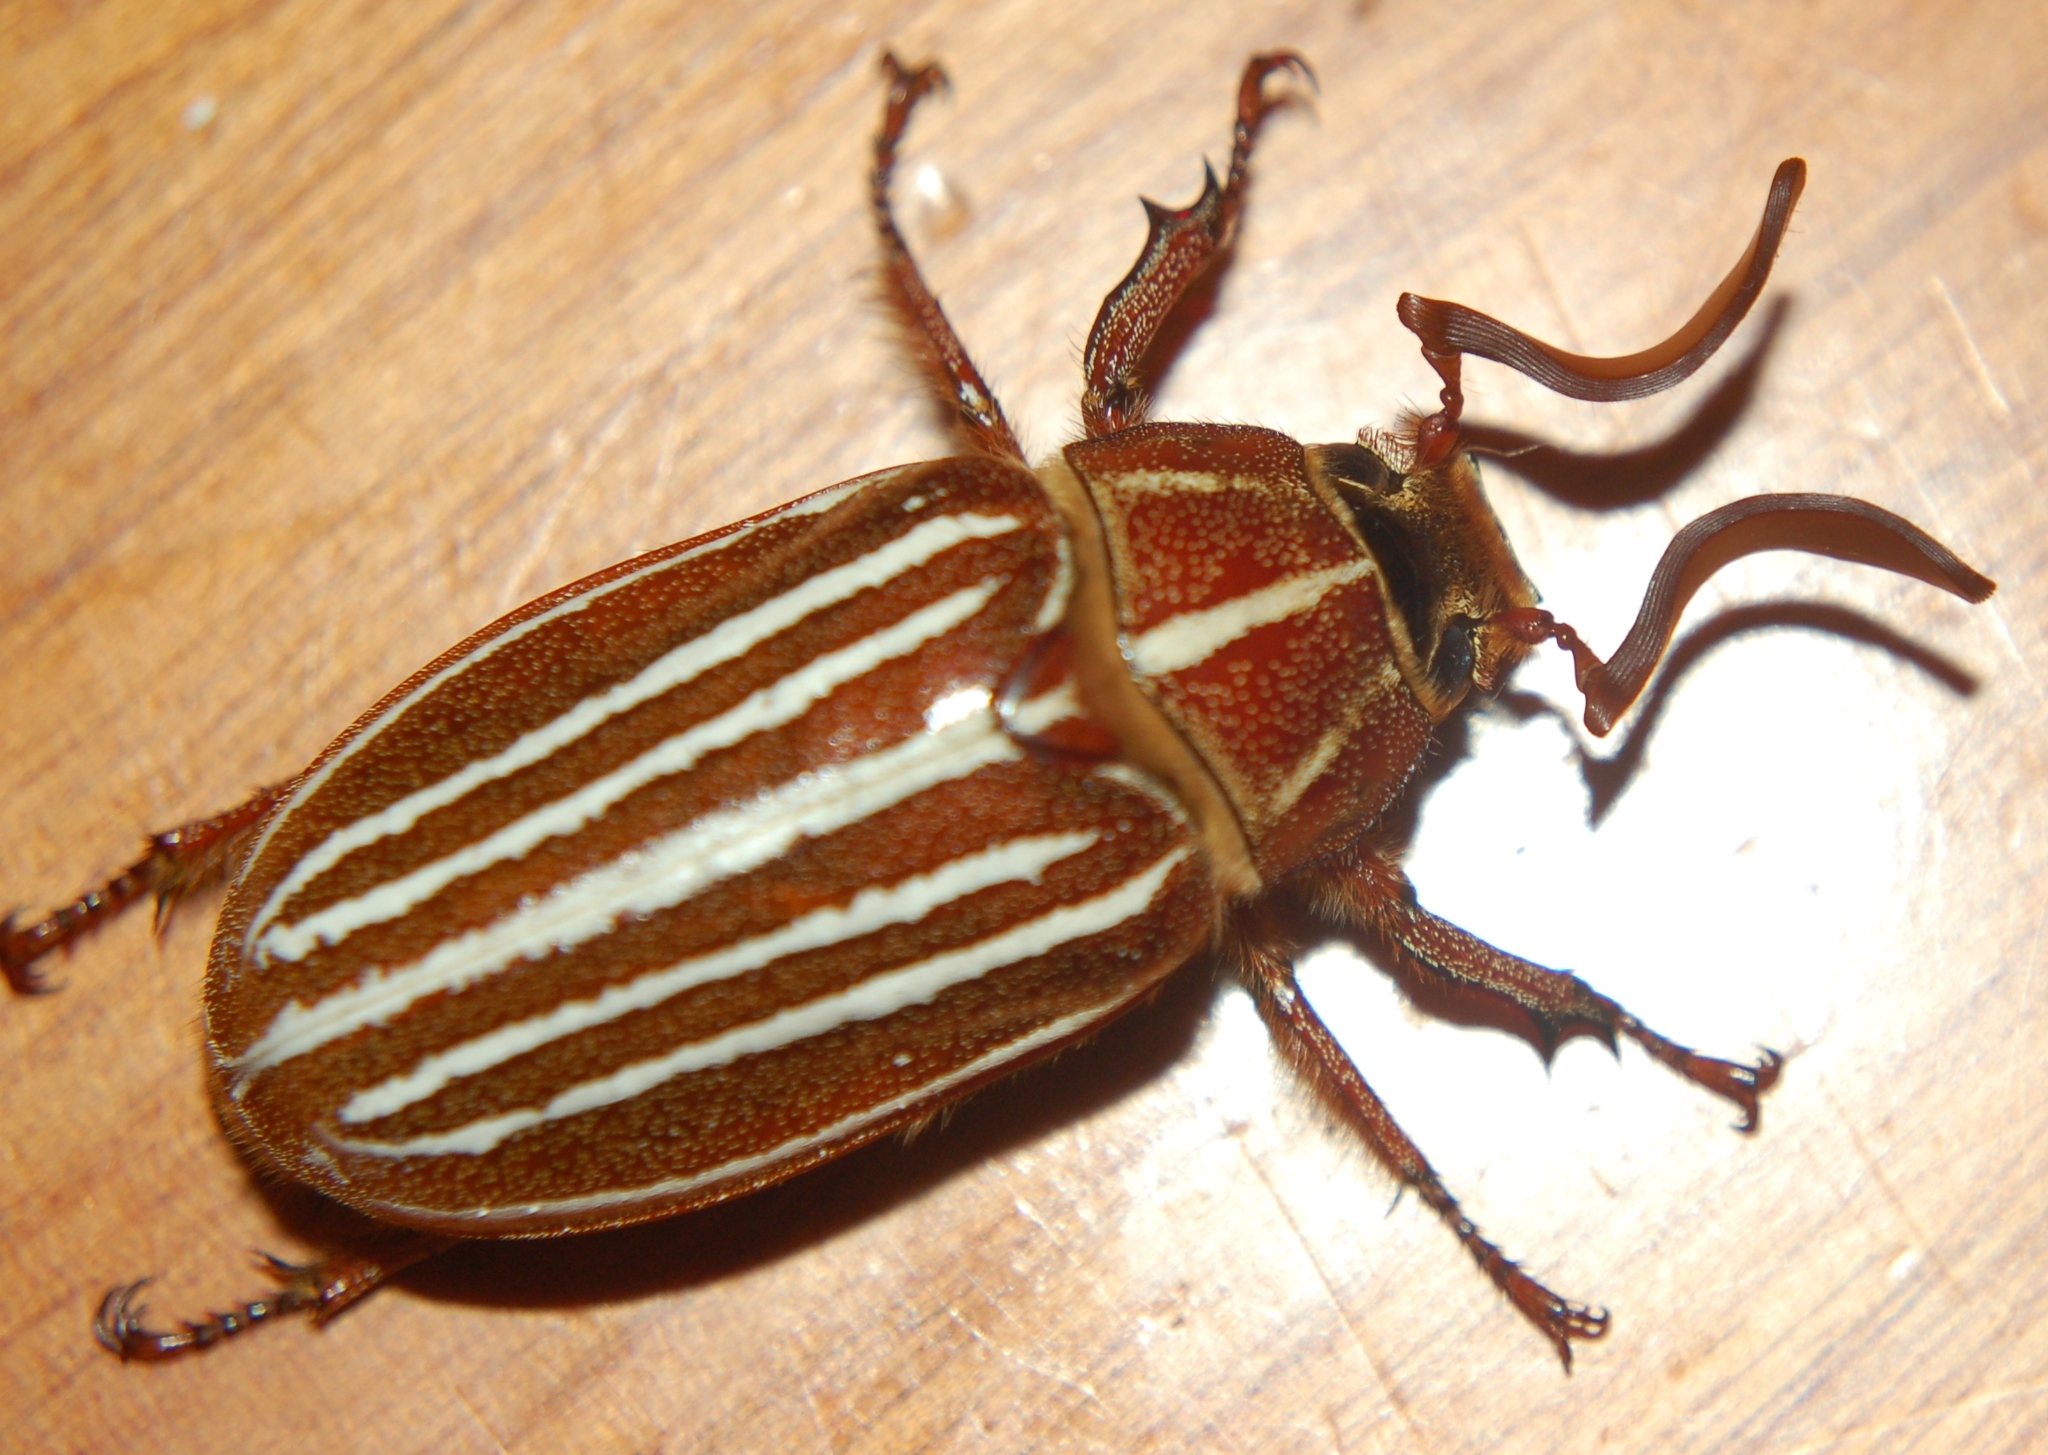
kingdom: Animalia
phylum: Arthropoda
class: Insecta
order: Coleoptera
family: Scarabaeidae
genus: Polyphylla
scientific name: Polyphylla petitii
